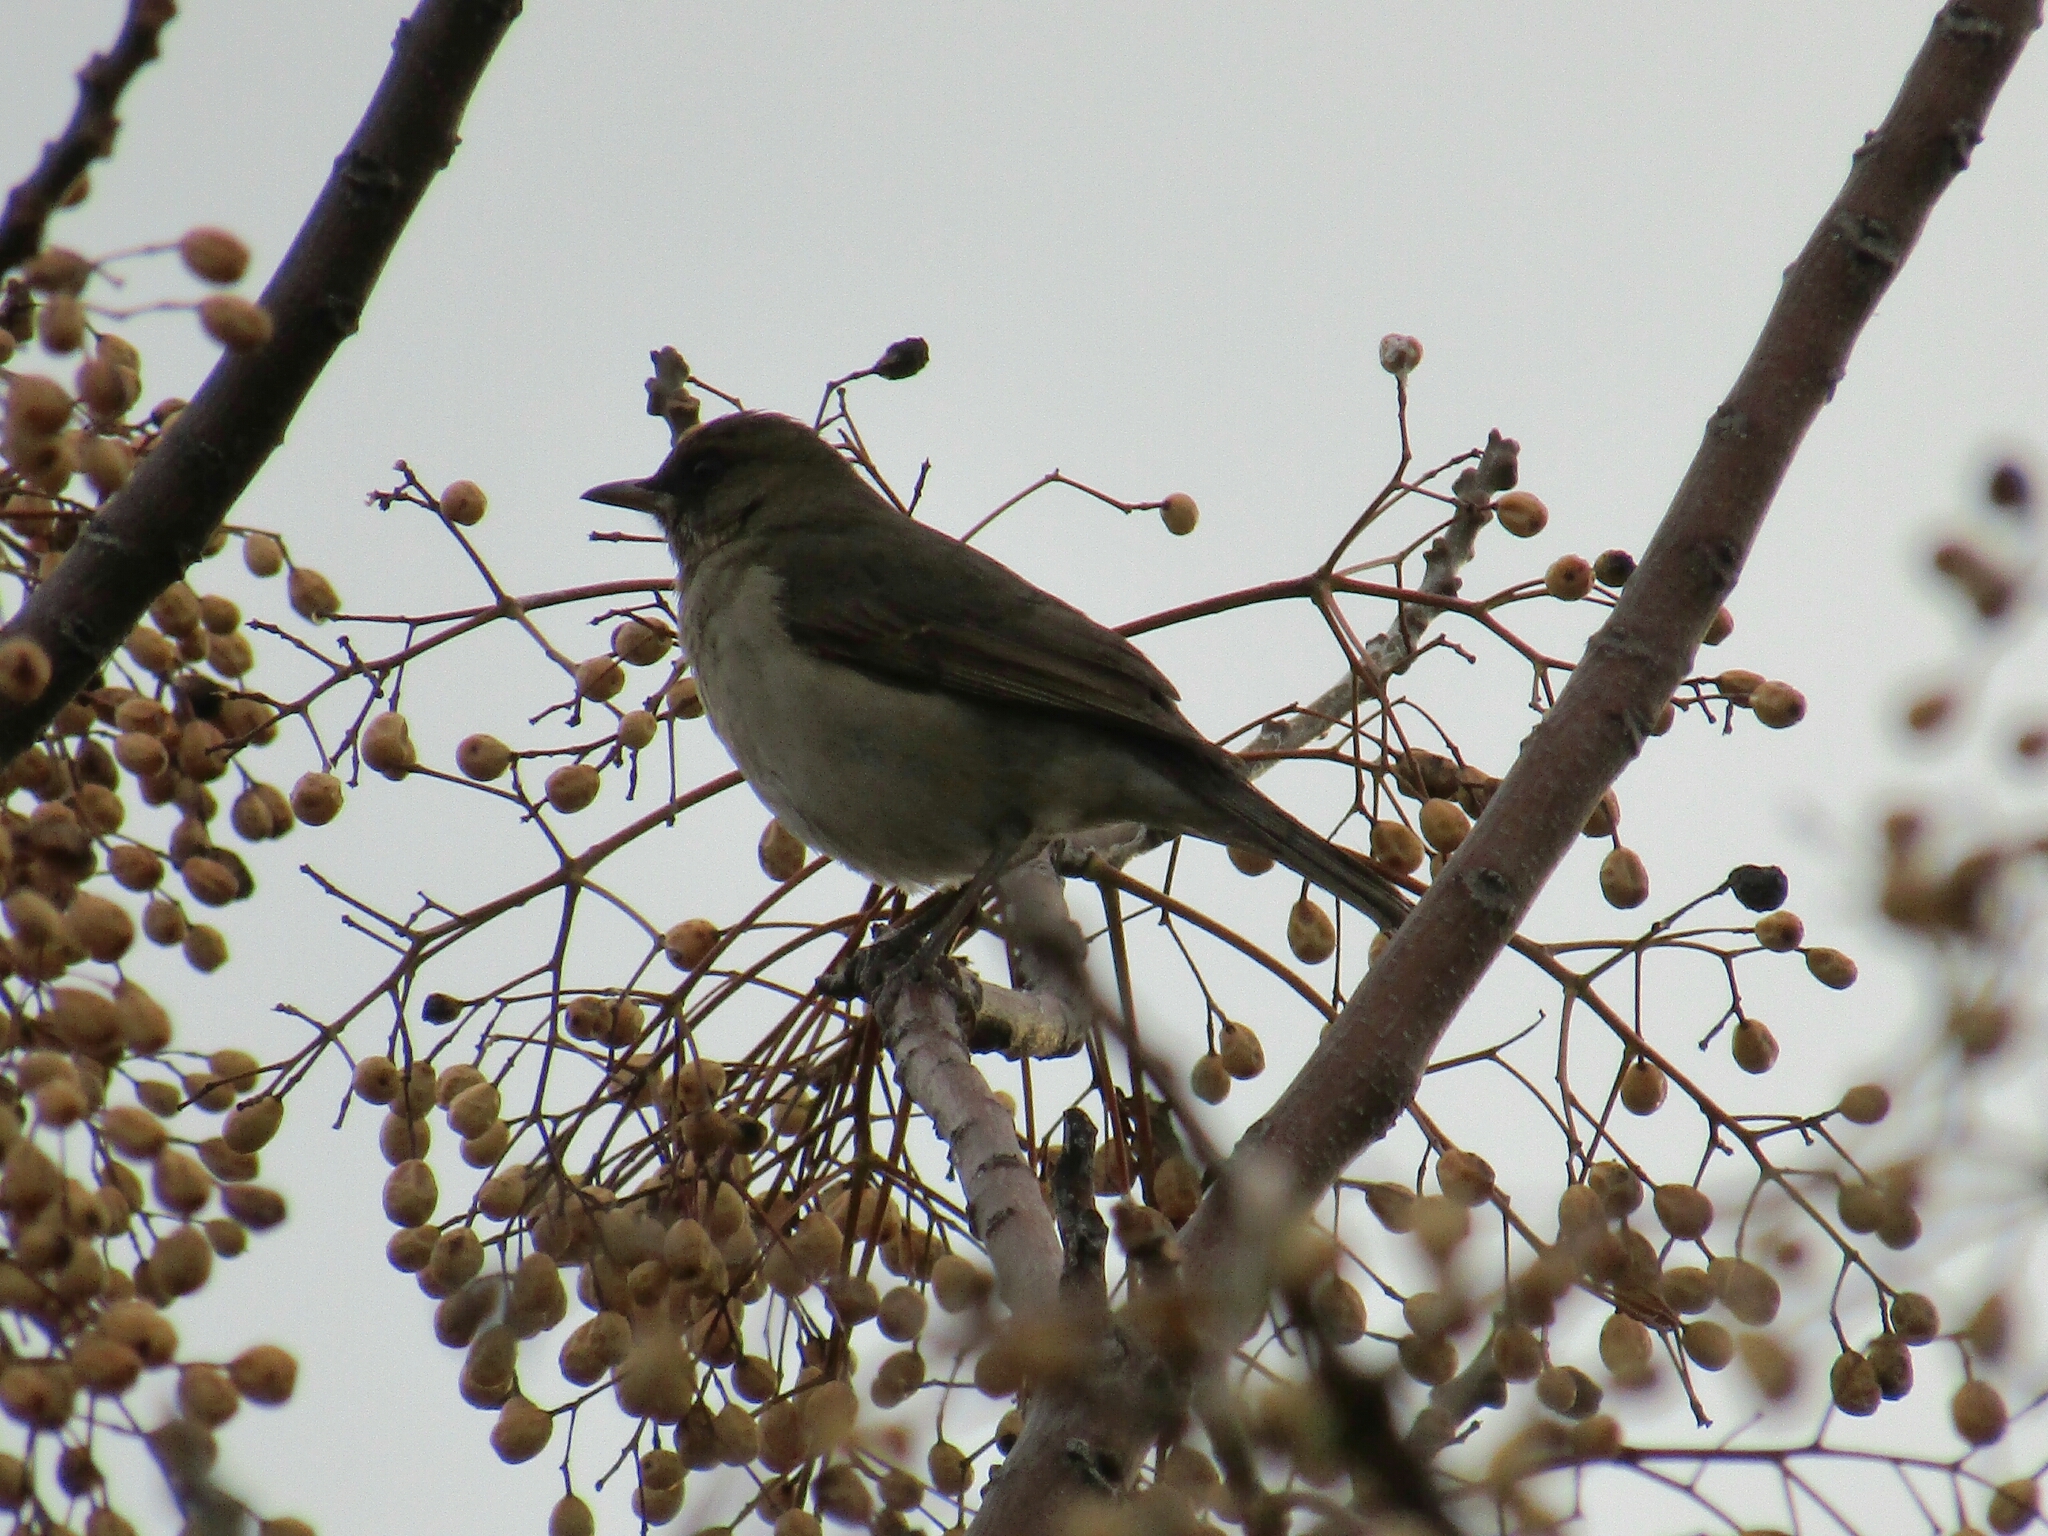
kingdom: Animalia
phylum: Chordata
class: Aves
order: Passeriformes
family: Turdidae
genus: Turdus
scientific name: Turdus amaurochalinus
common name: Creamy-bellied thrush
